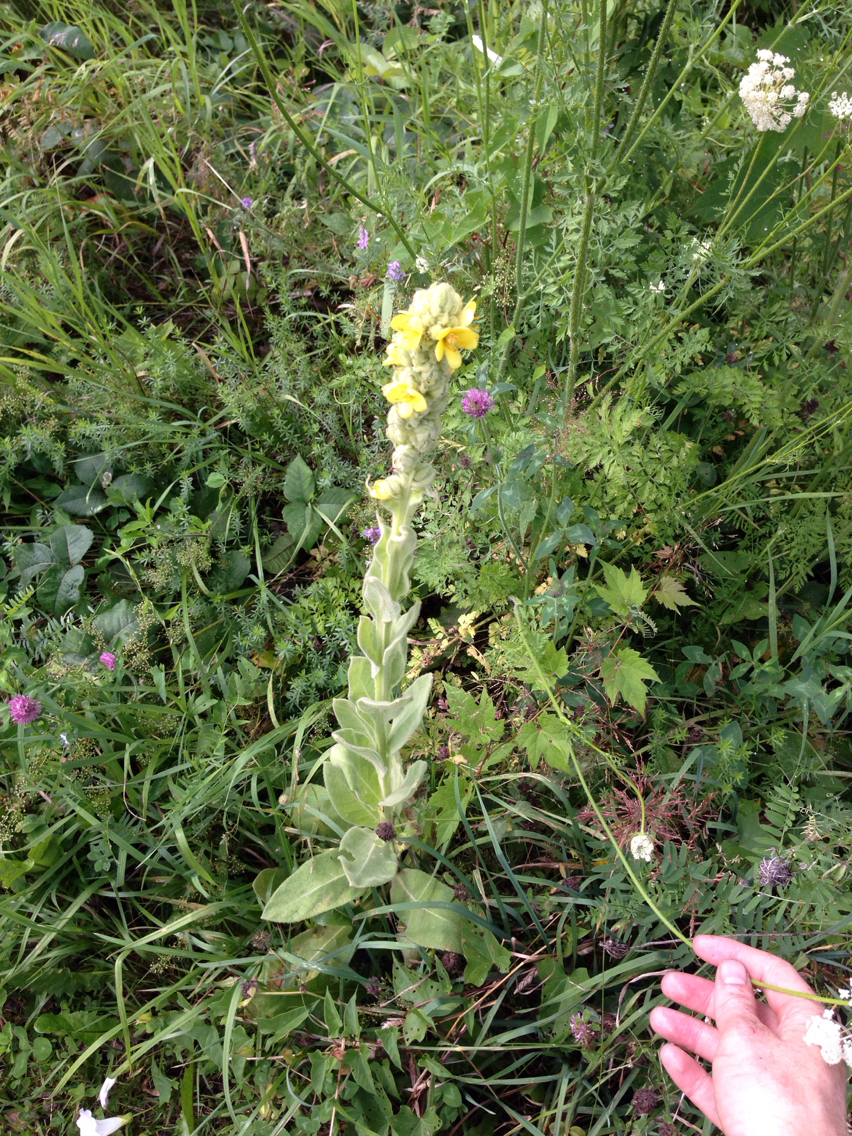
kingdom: Plantae
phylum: Tracheophyta
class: Magnoliopsida
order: Lamiales
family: Scrophulariaceae
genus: Verbascum
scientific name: Verbascum thapsus
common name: Common mullein
